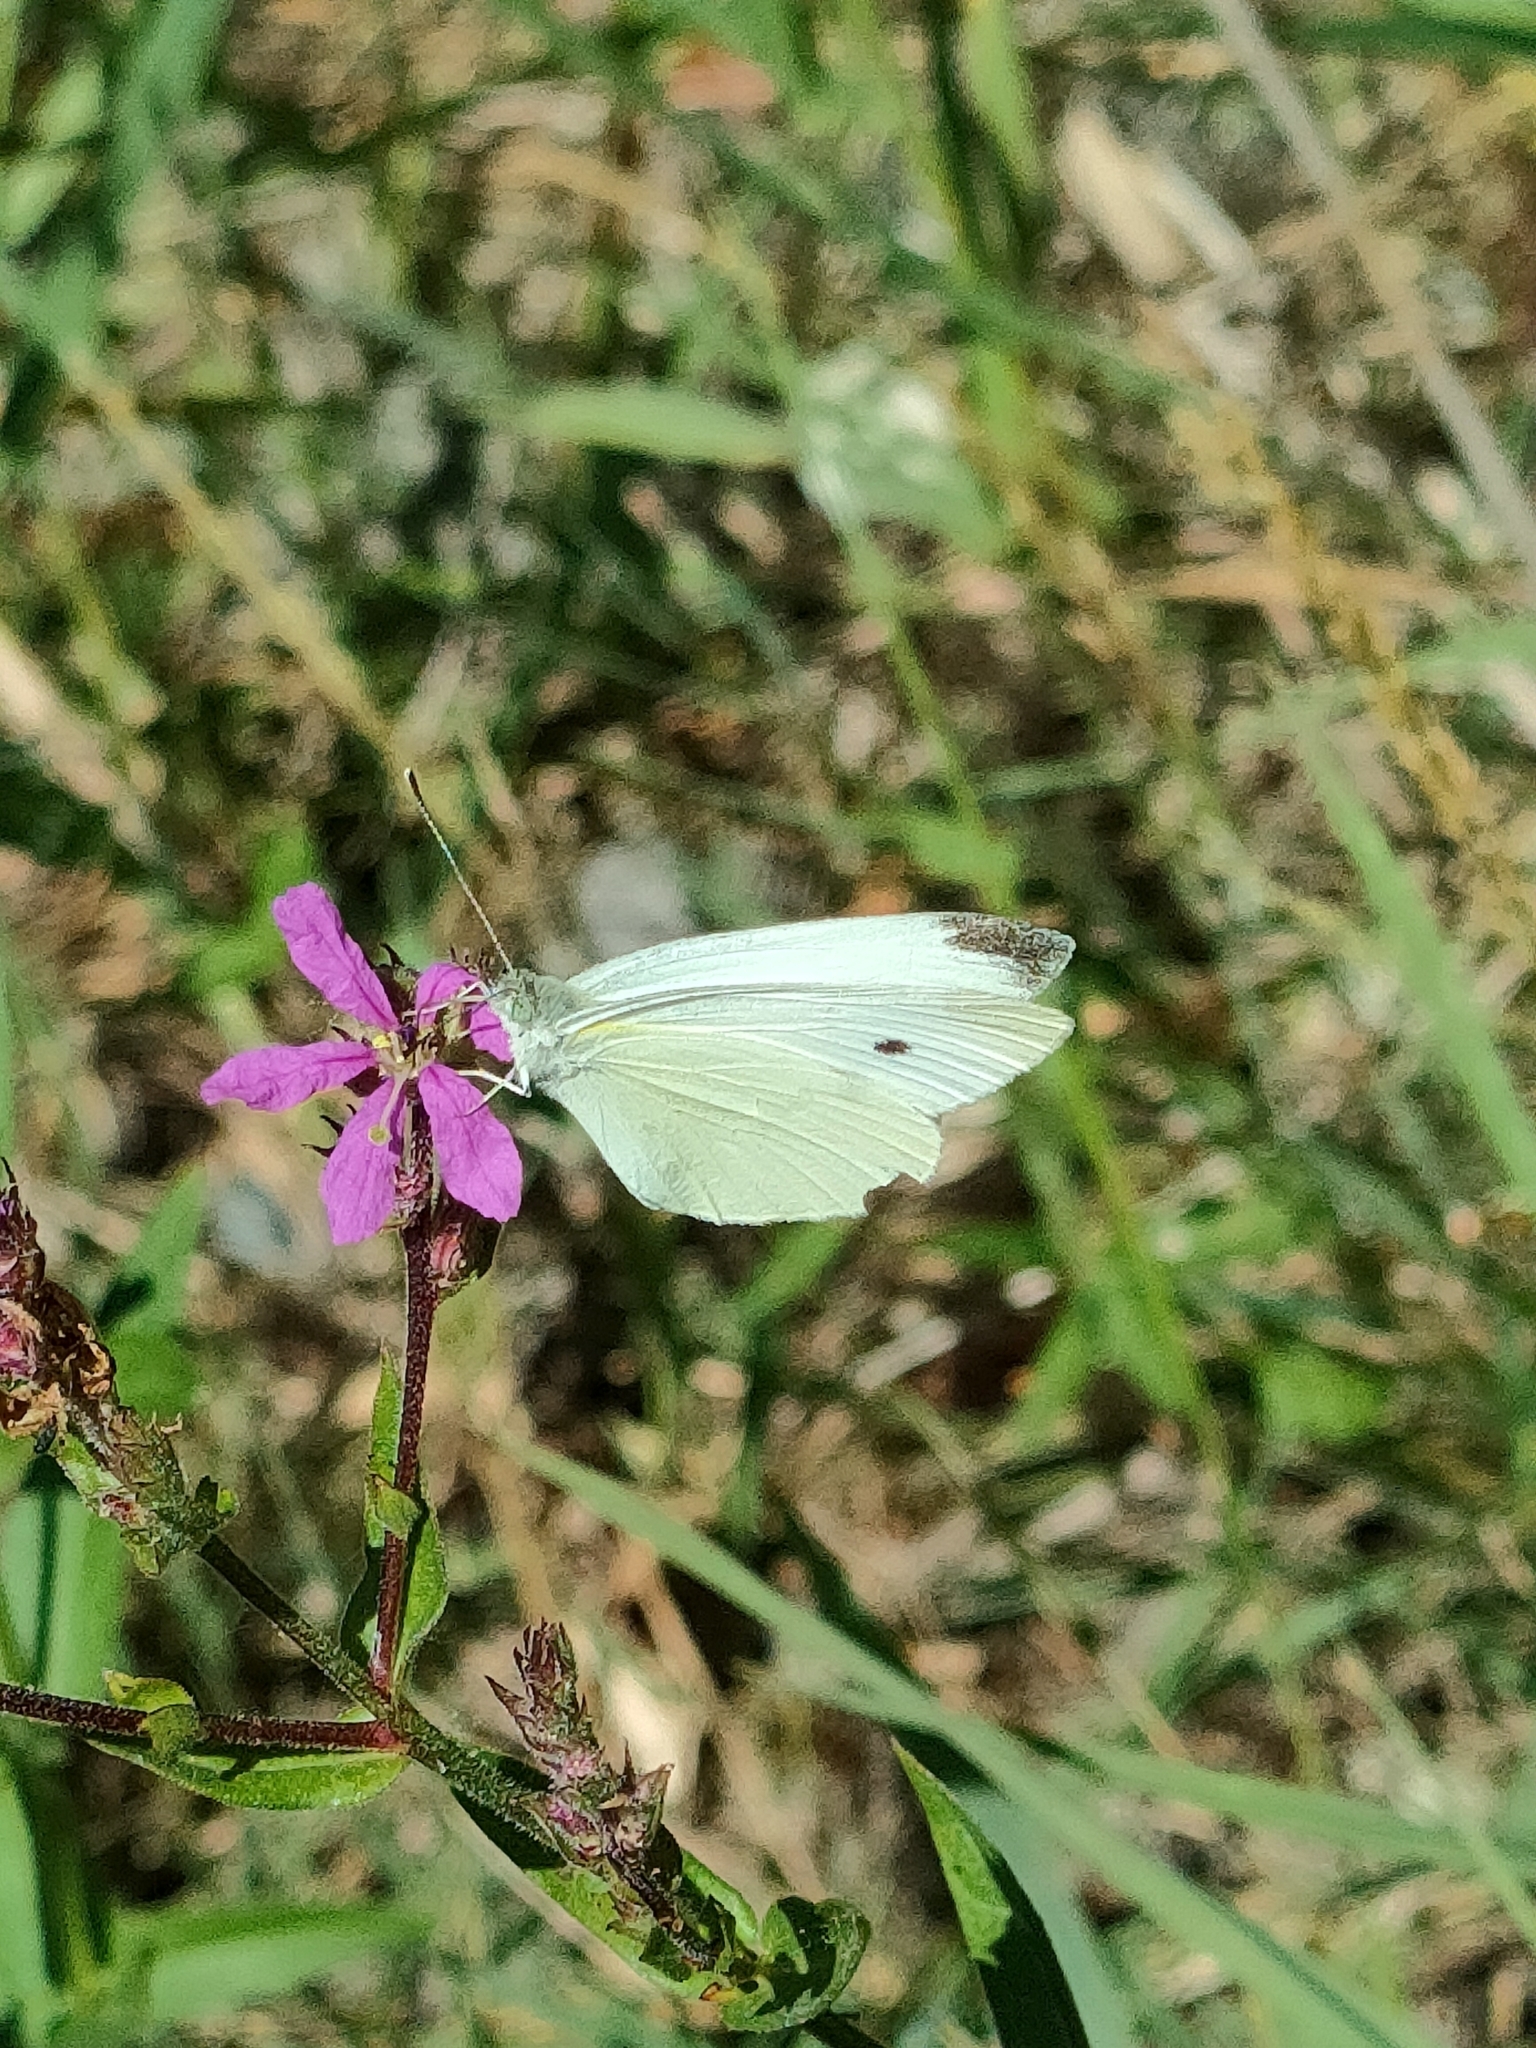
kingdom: Animalia
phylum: Arthropoda
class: Insecta
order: Lepidoptera
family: Pieridae
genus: Pieris
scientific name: Pieris rapae
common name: Small white
